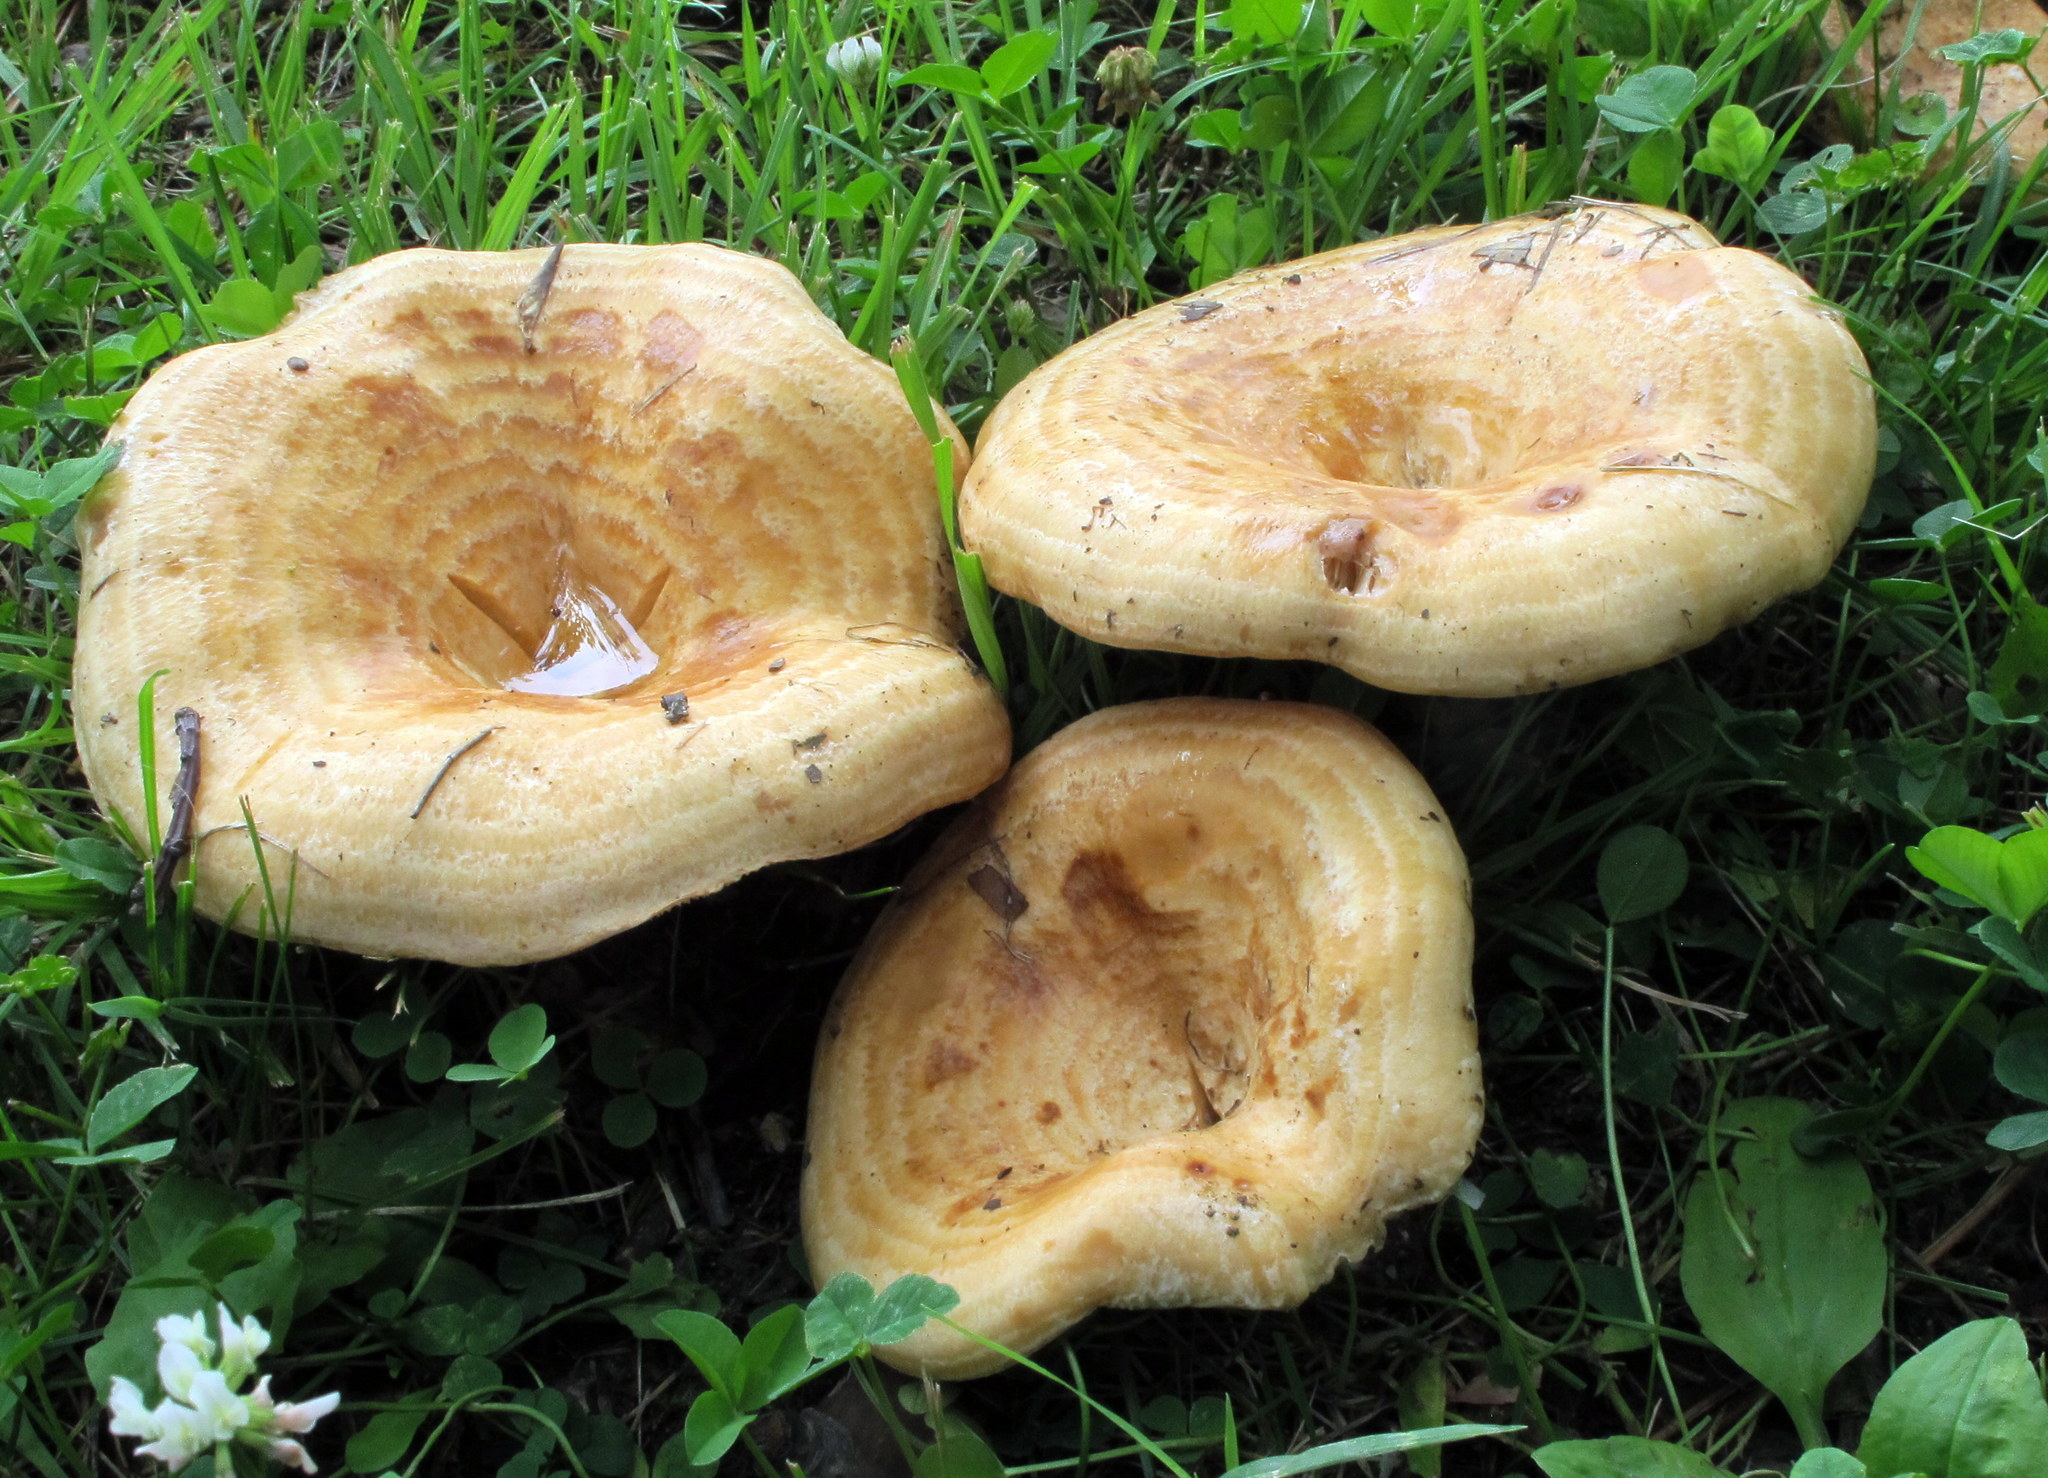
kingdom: Fungi
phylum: Basidiomycota
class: Agaricomycetes
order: Russulales
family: Russulaceae
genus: Lactarius
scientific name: Lactarius psammicola
